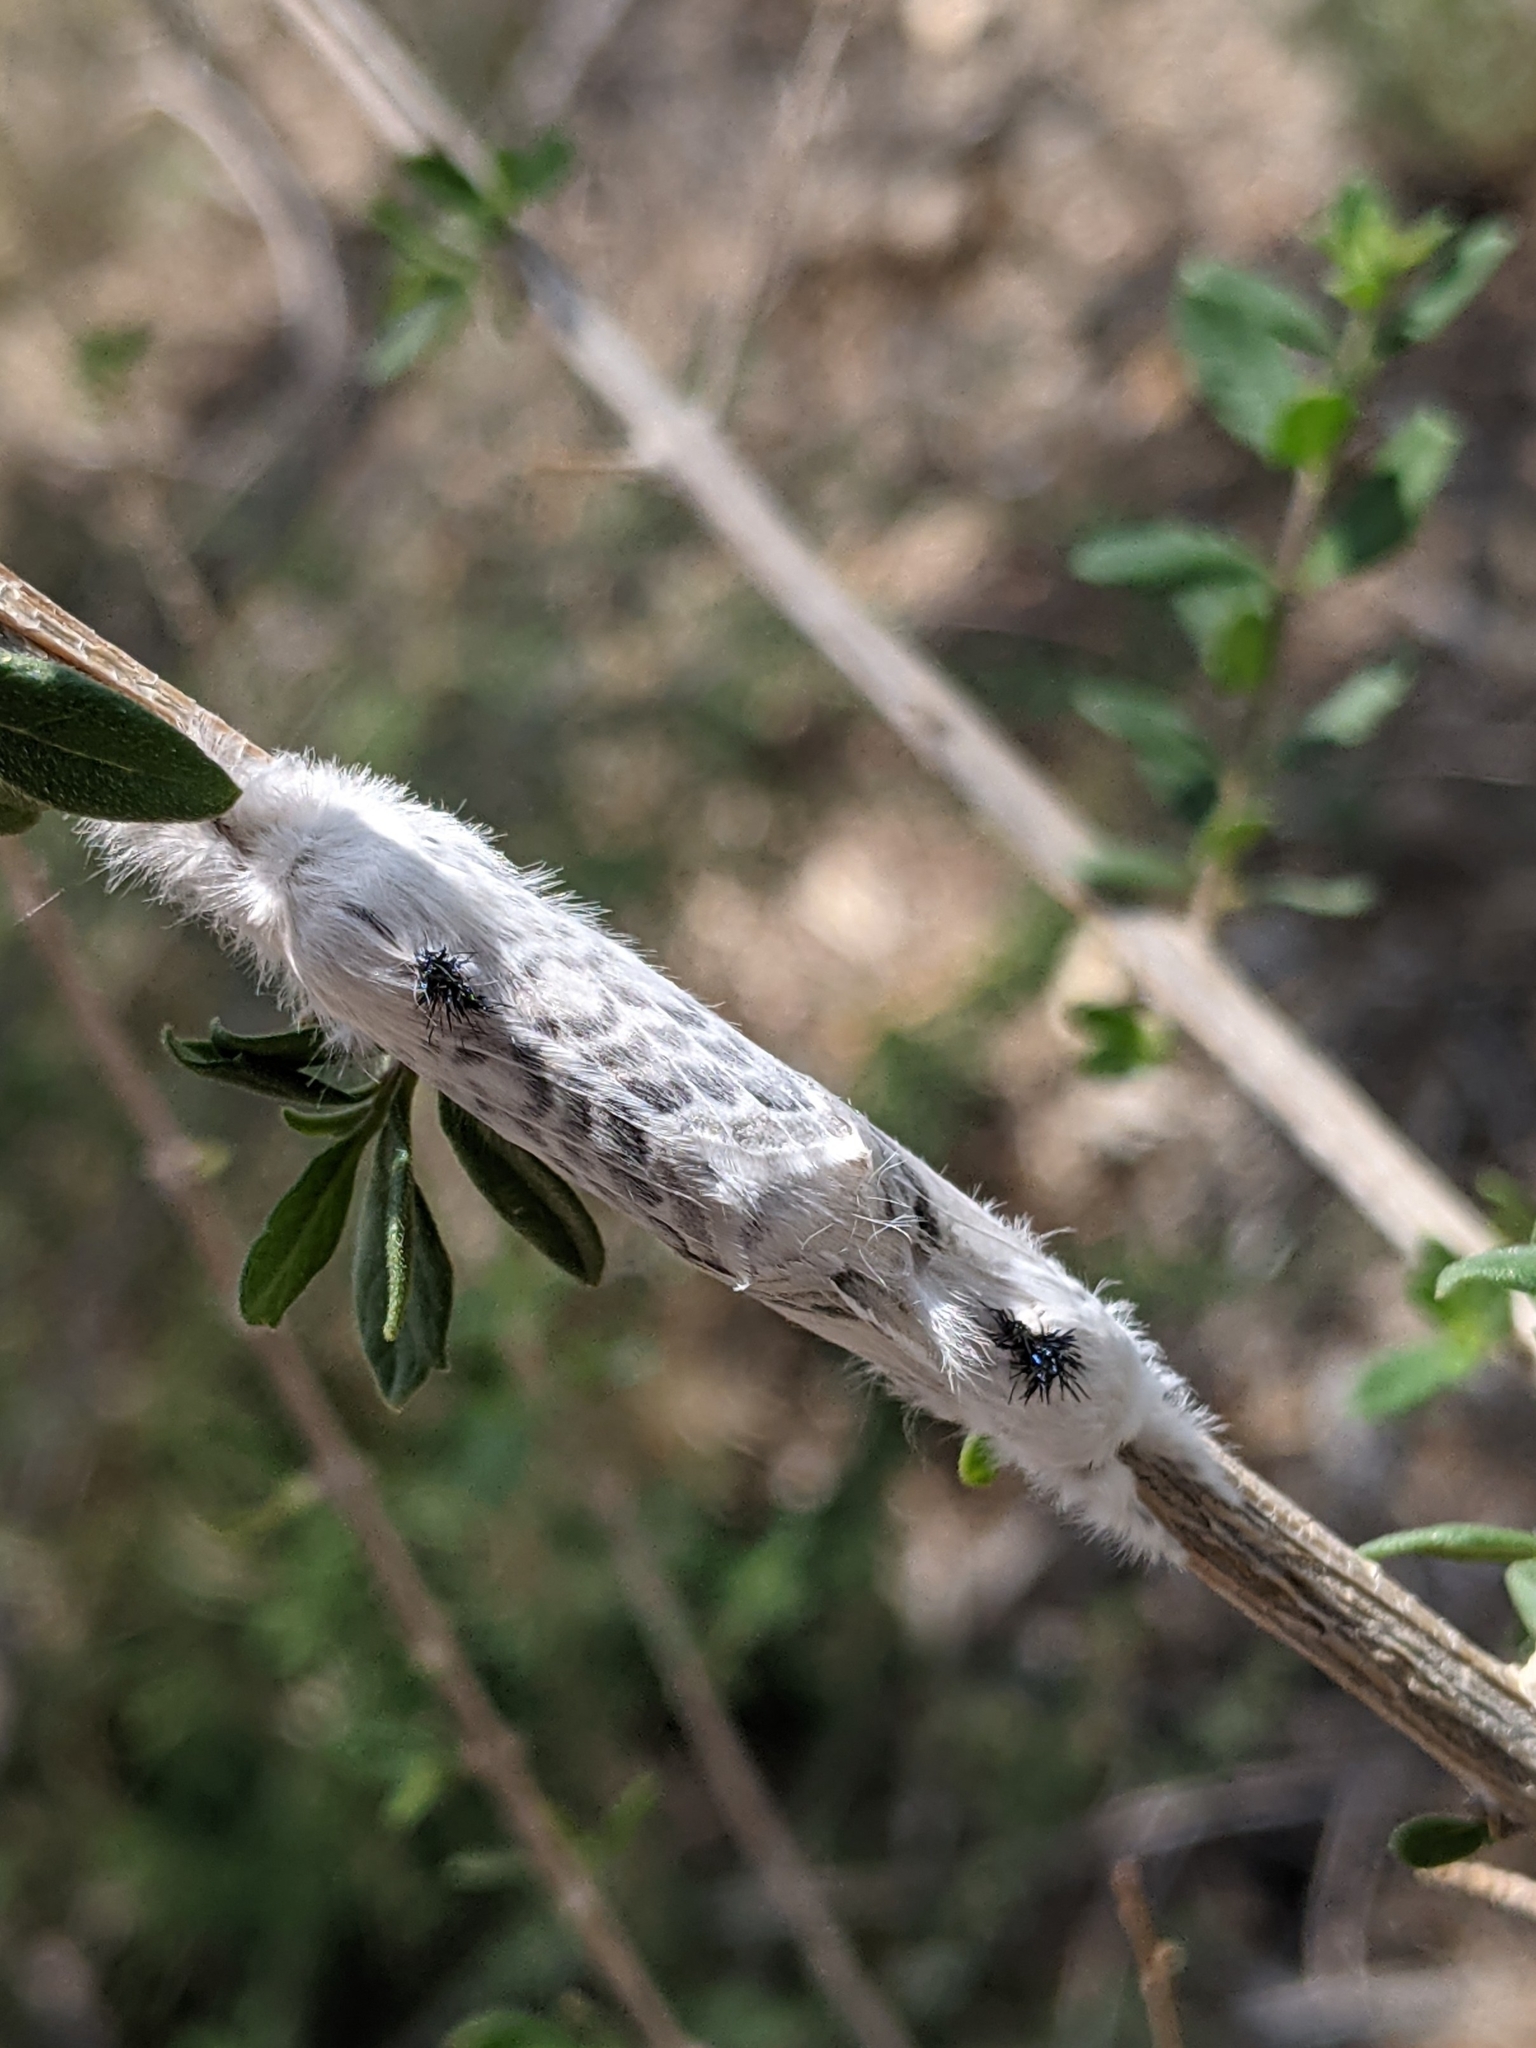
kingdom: Animalia
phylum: Arthropoda
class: Insecta
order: Lepidoptera
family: Lasiocampidae
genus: Apotolype
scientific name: Apotolype brevicrista
